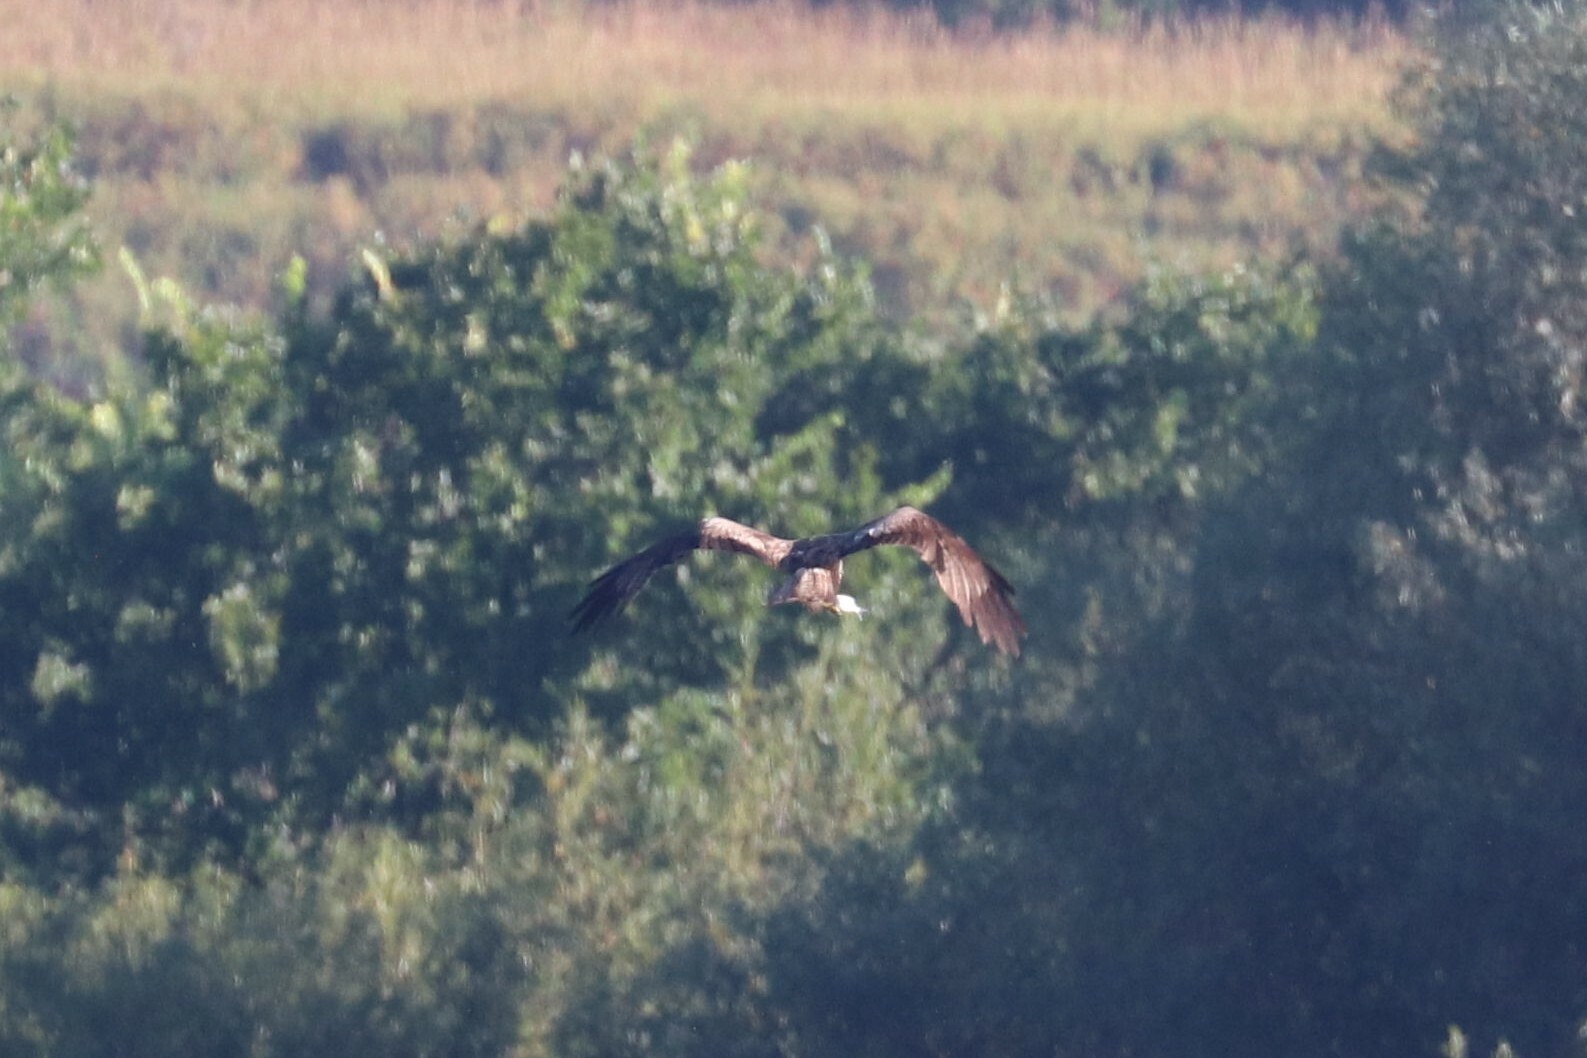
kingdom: Animalia
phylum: Chordata
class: Aves
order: Accipitriformes
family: Accipitridae
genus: Milvus
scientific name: Milvus migrans
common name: Black kite
